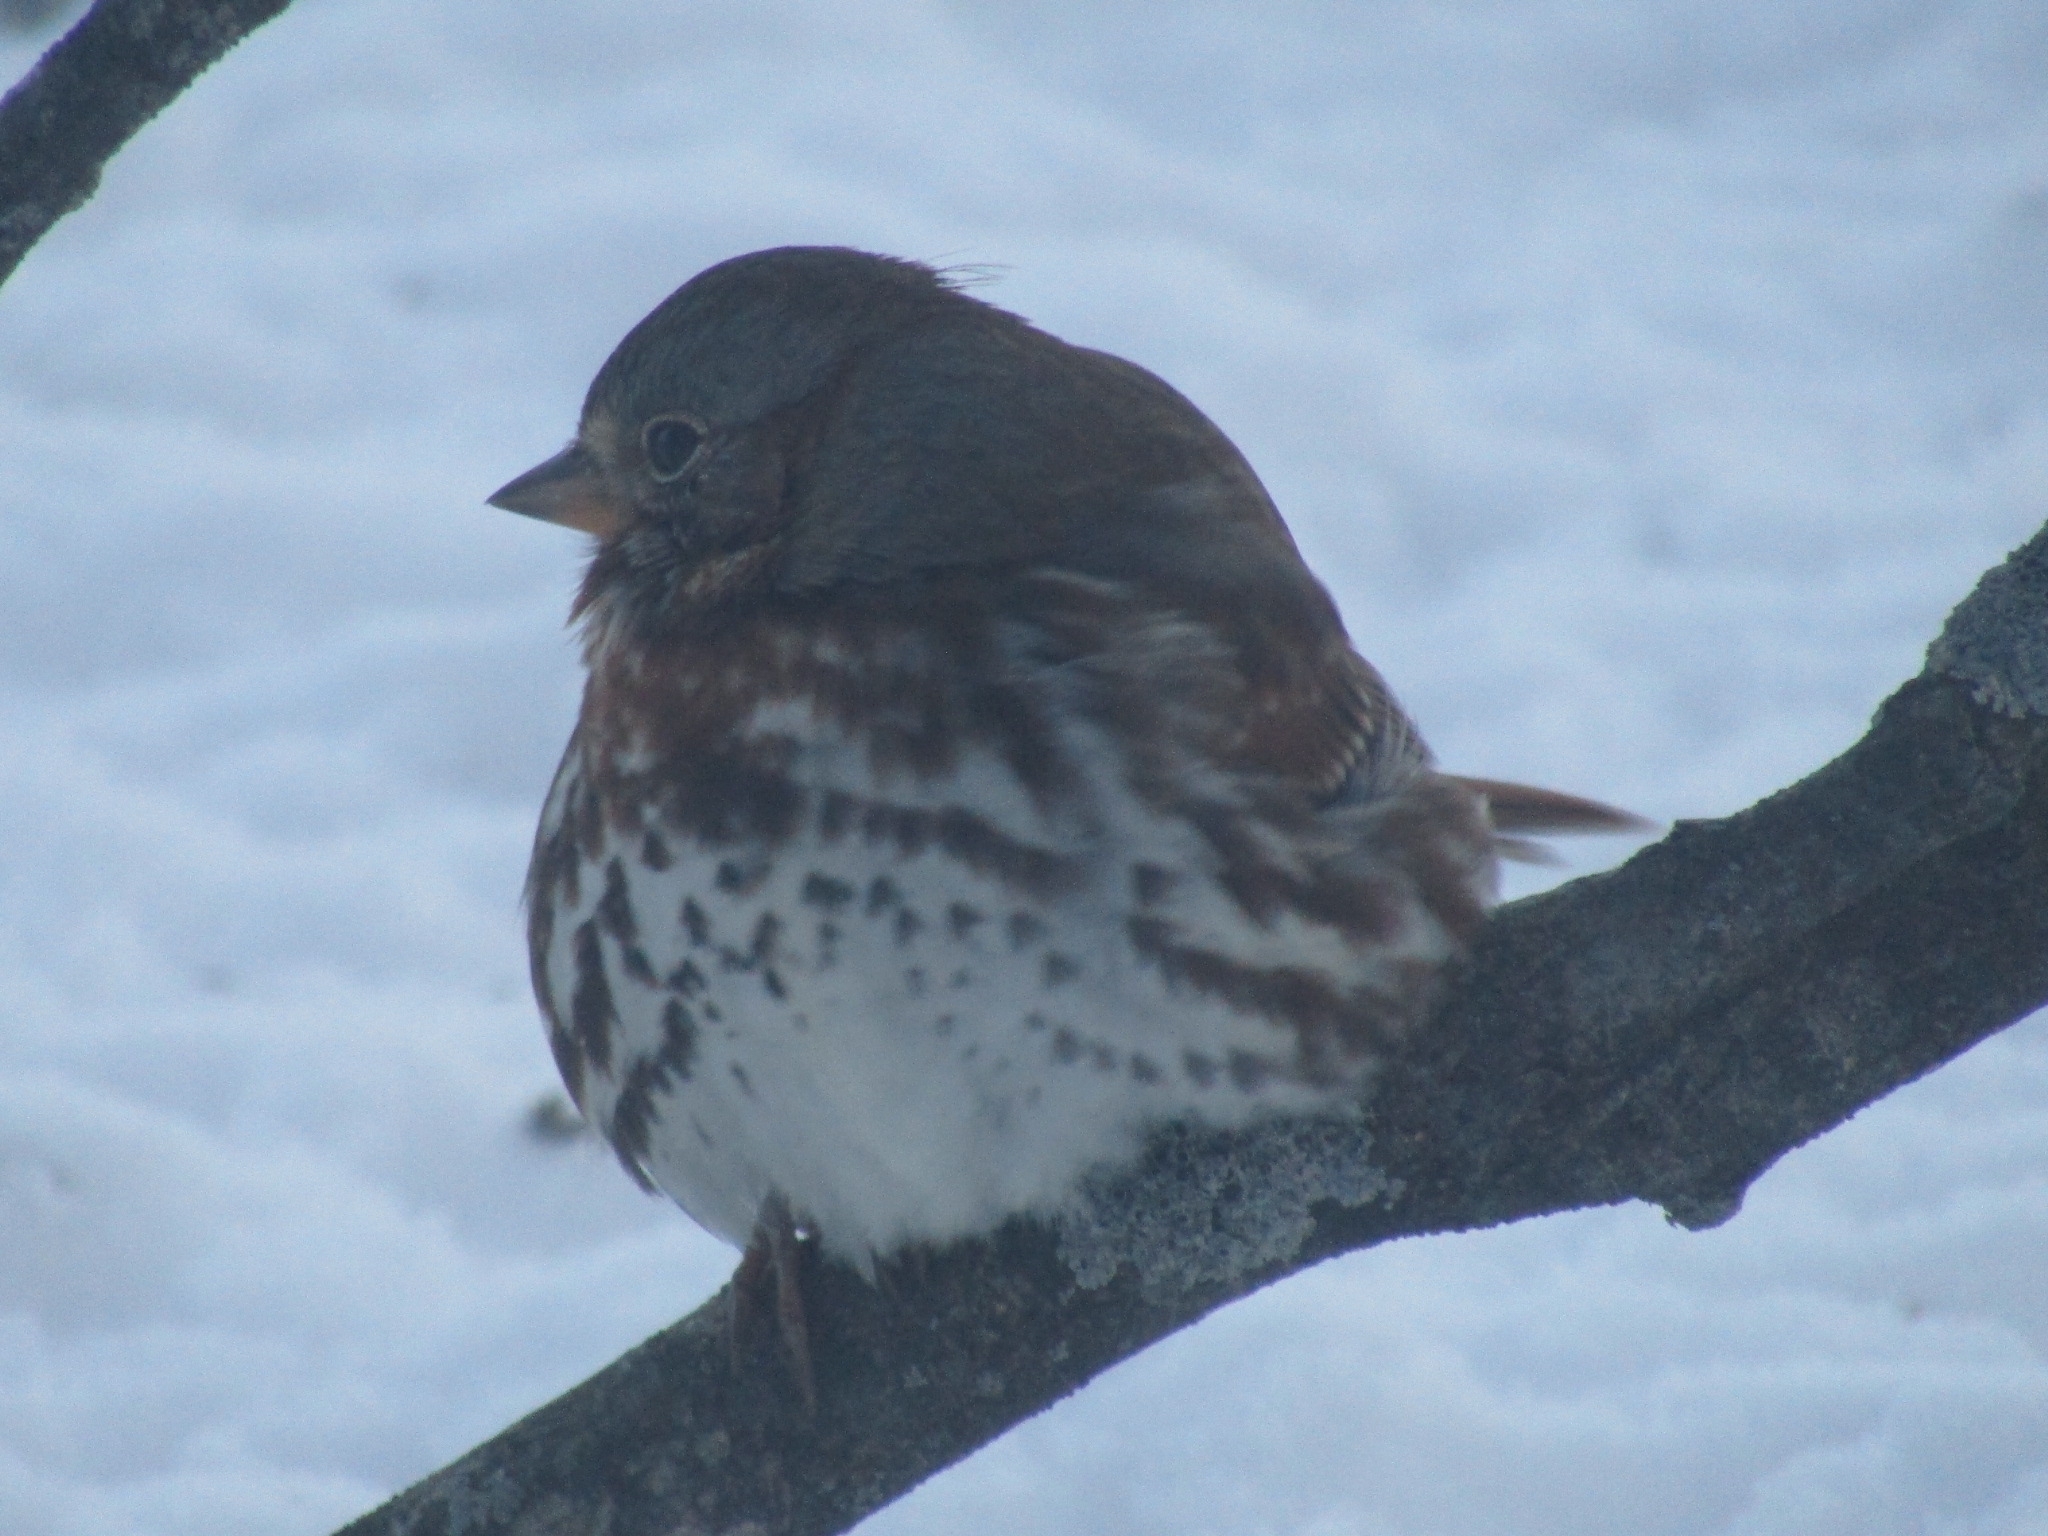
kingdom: Animalia
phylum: Chordata
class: Aves
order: Passeriformes
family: Passerellidae
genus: Passerella
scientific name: Passerella iliaca
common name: Fox sparrow
